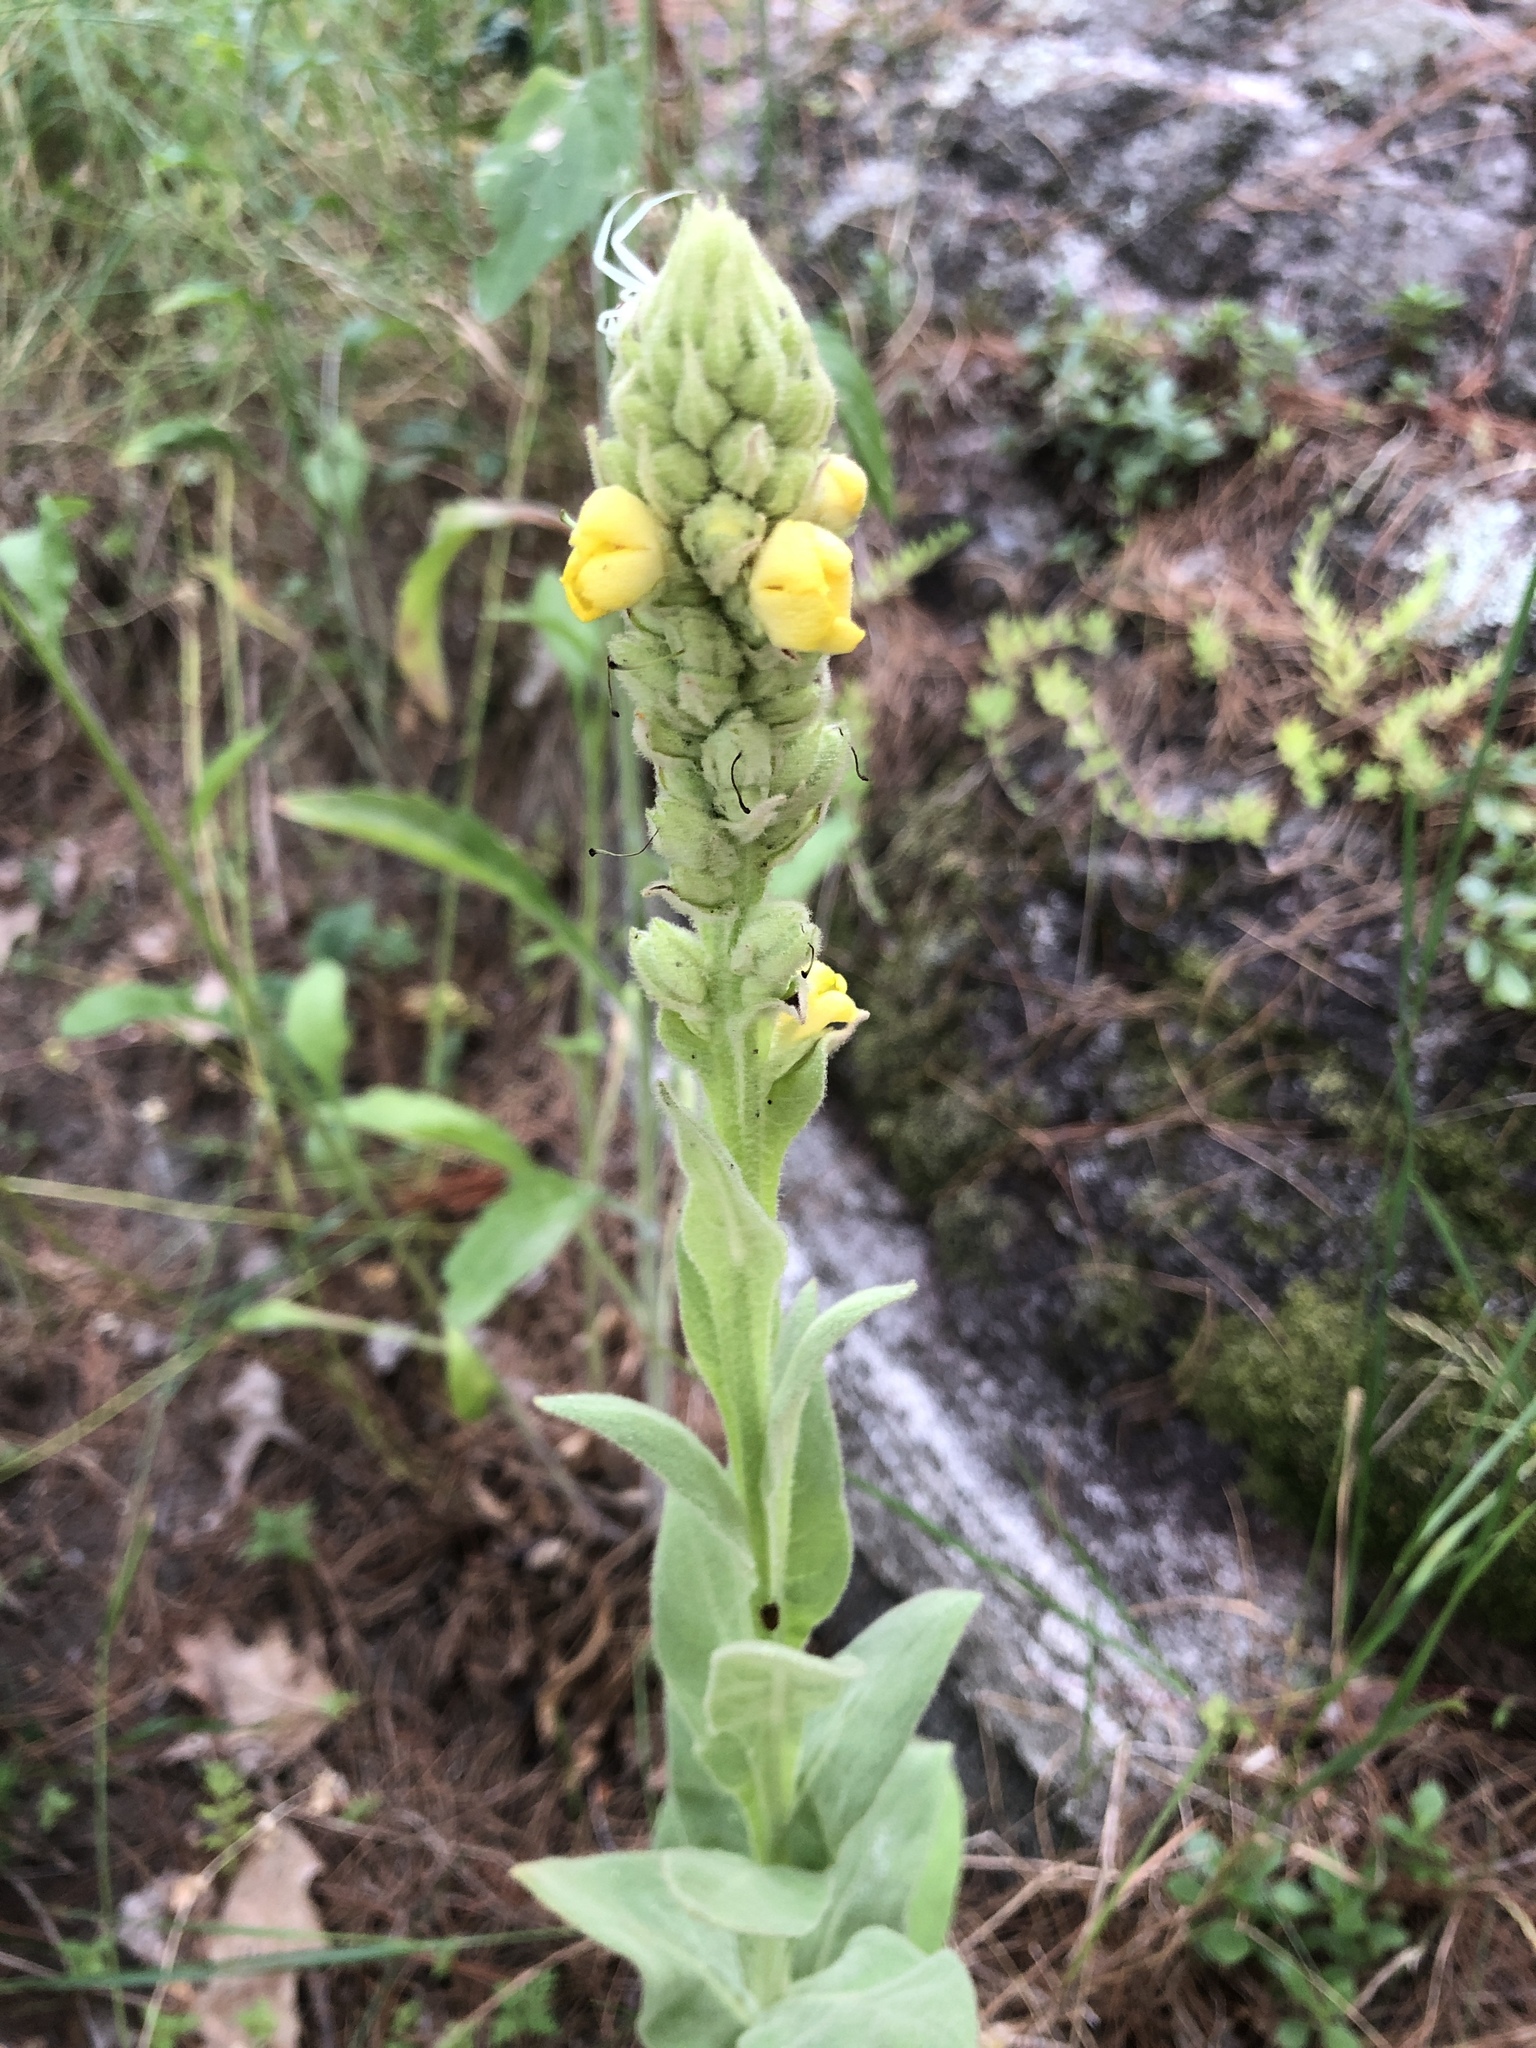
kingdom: Plantae
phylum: Tracheophyta
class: Magnoliopsida
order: Lamiales
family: Scrophulariaceae
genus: Verbascum
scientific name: Verbascum thapsus
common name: Common mullein
